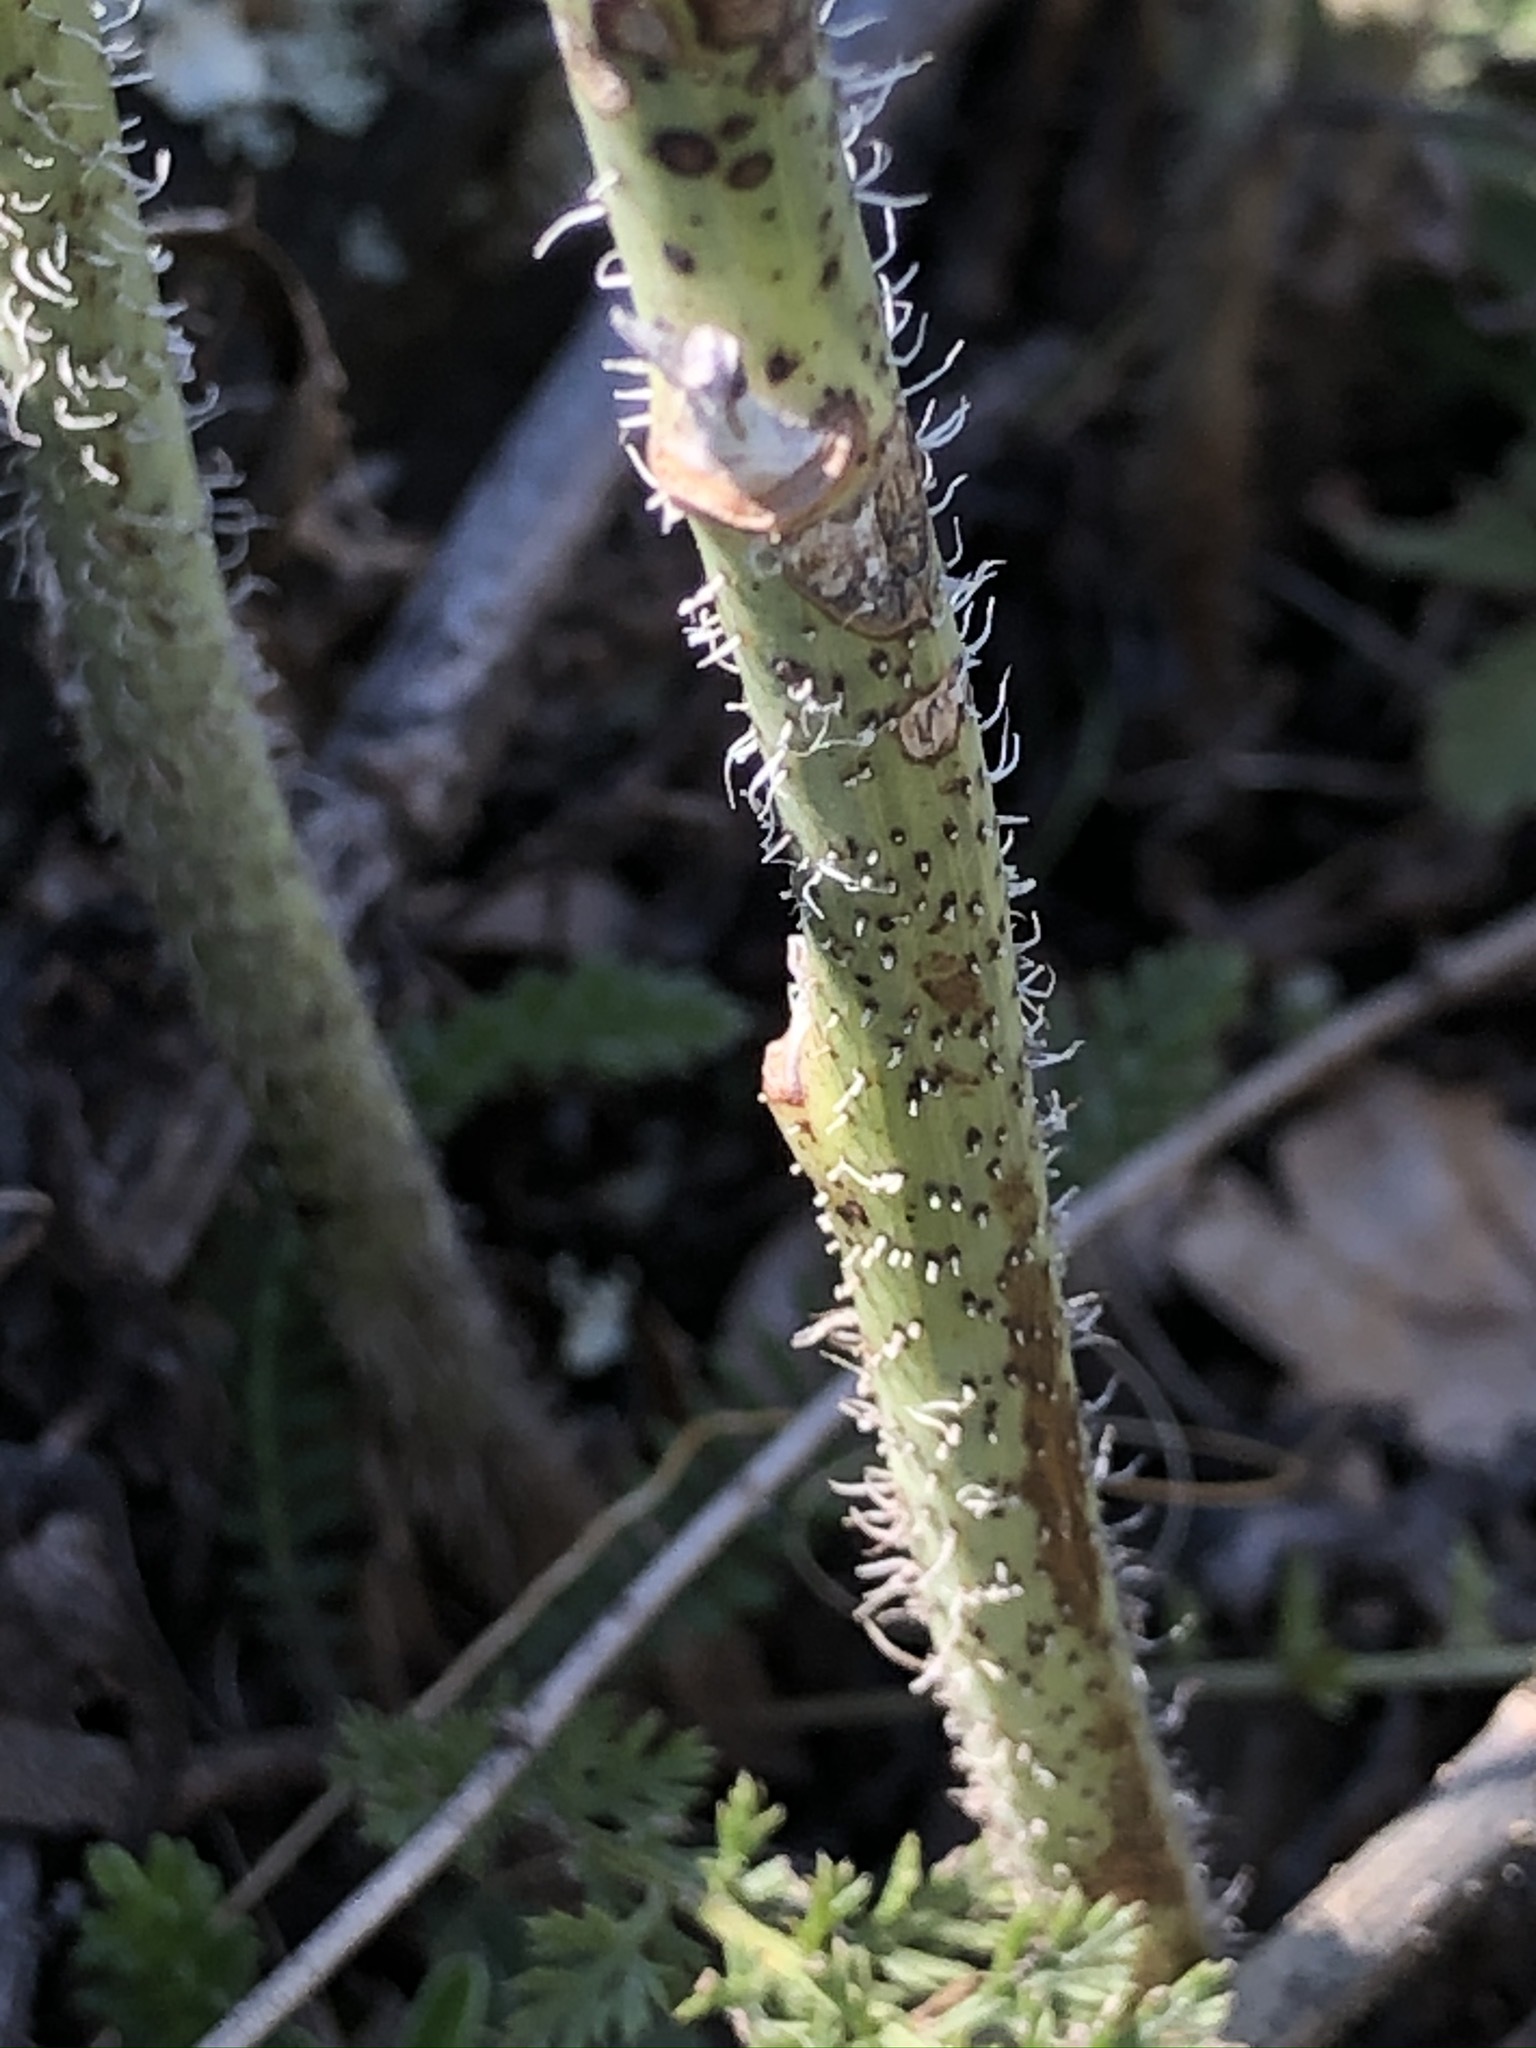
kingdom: Plantae
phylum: Tracheophyta
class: Magnoliopsida
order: Asterales
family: Asteraceae
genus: Chondrilla
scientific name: Chondrilla juncea
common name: Skeleton weed
